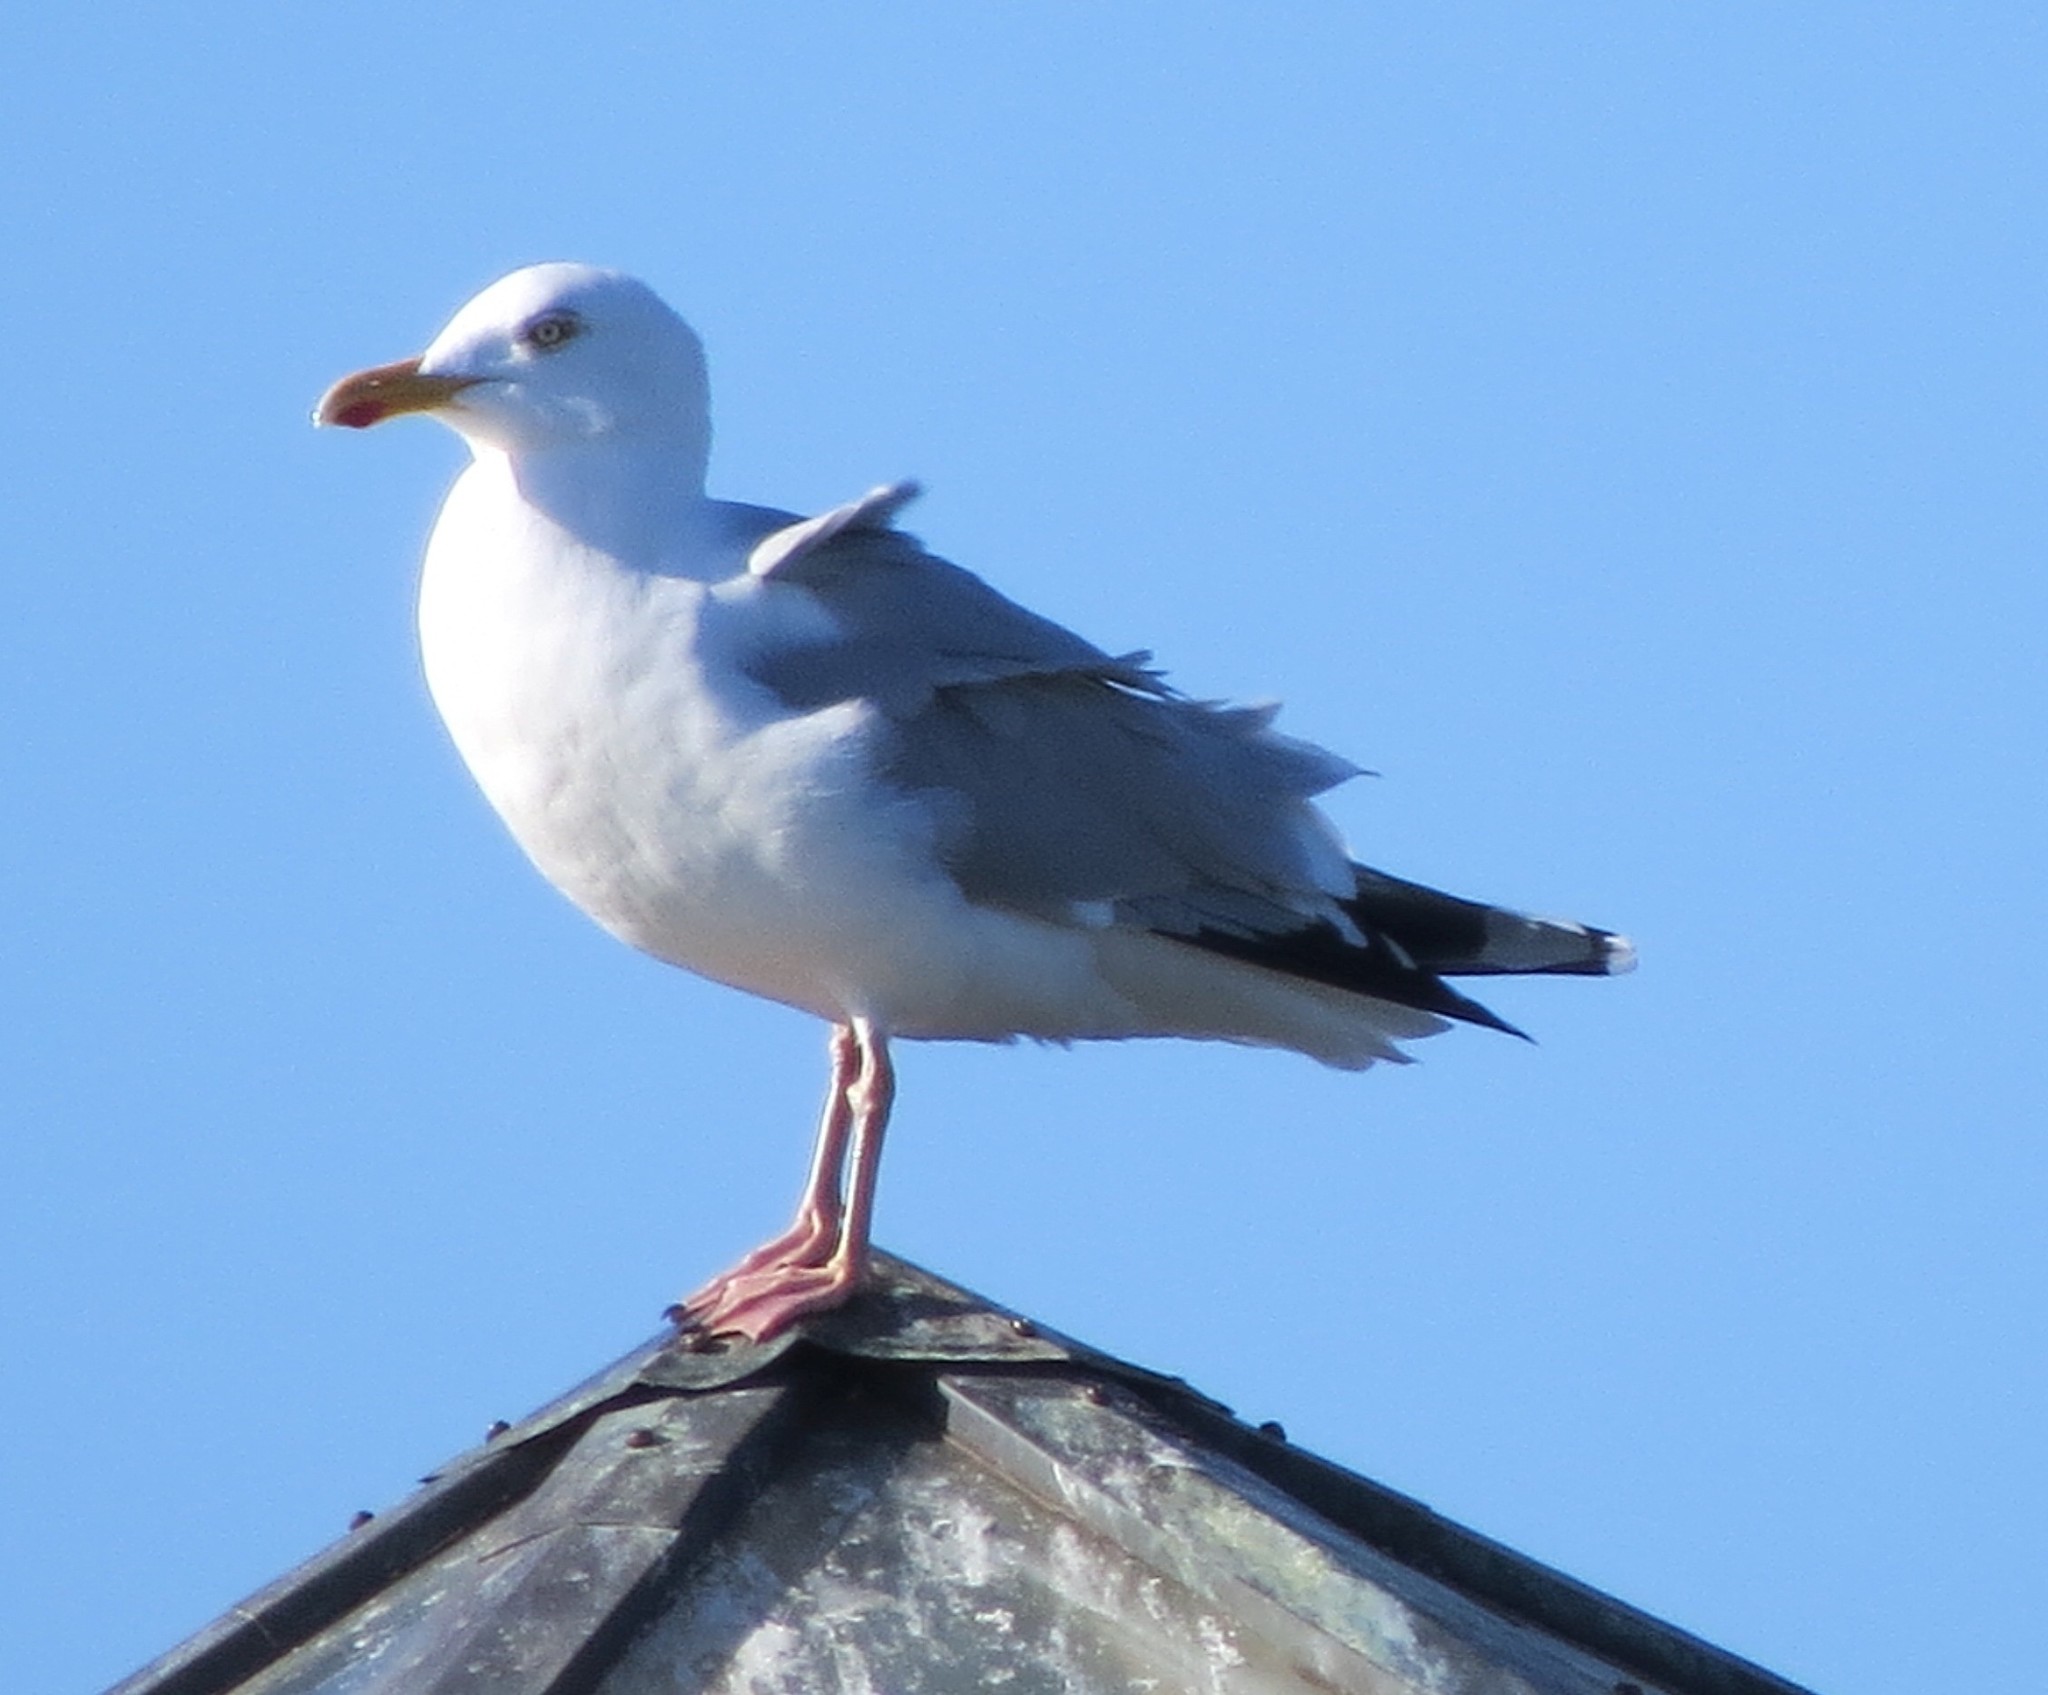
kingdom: Animalia
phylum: Chordata
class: Aves
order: Charadriiformes
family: Laridae
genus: Larus
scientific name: Larus argentatus
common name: Herring gull
